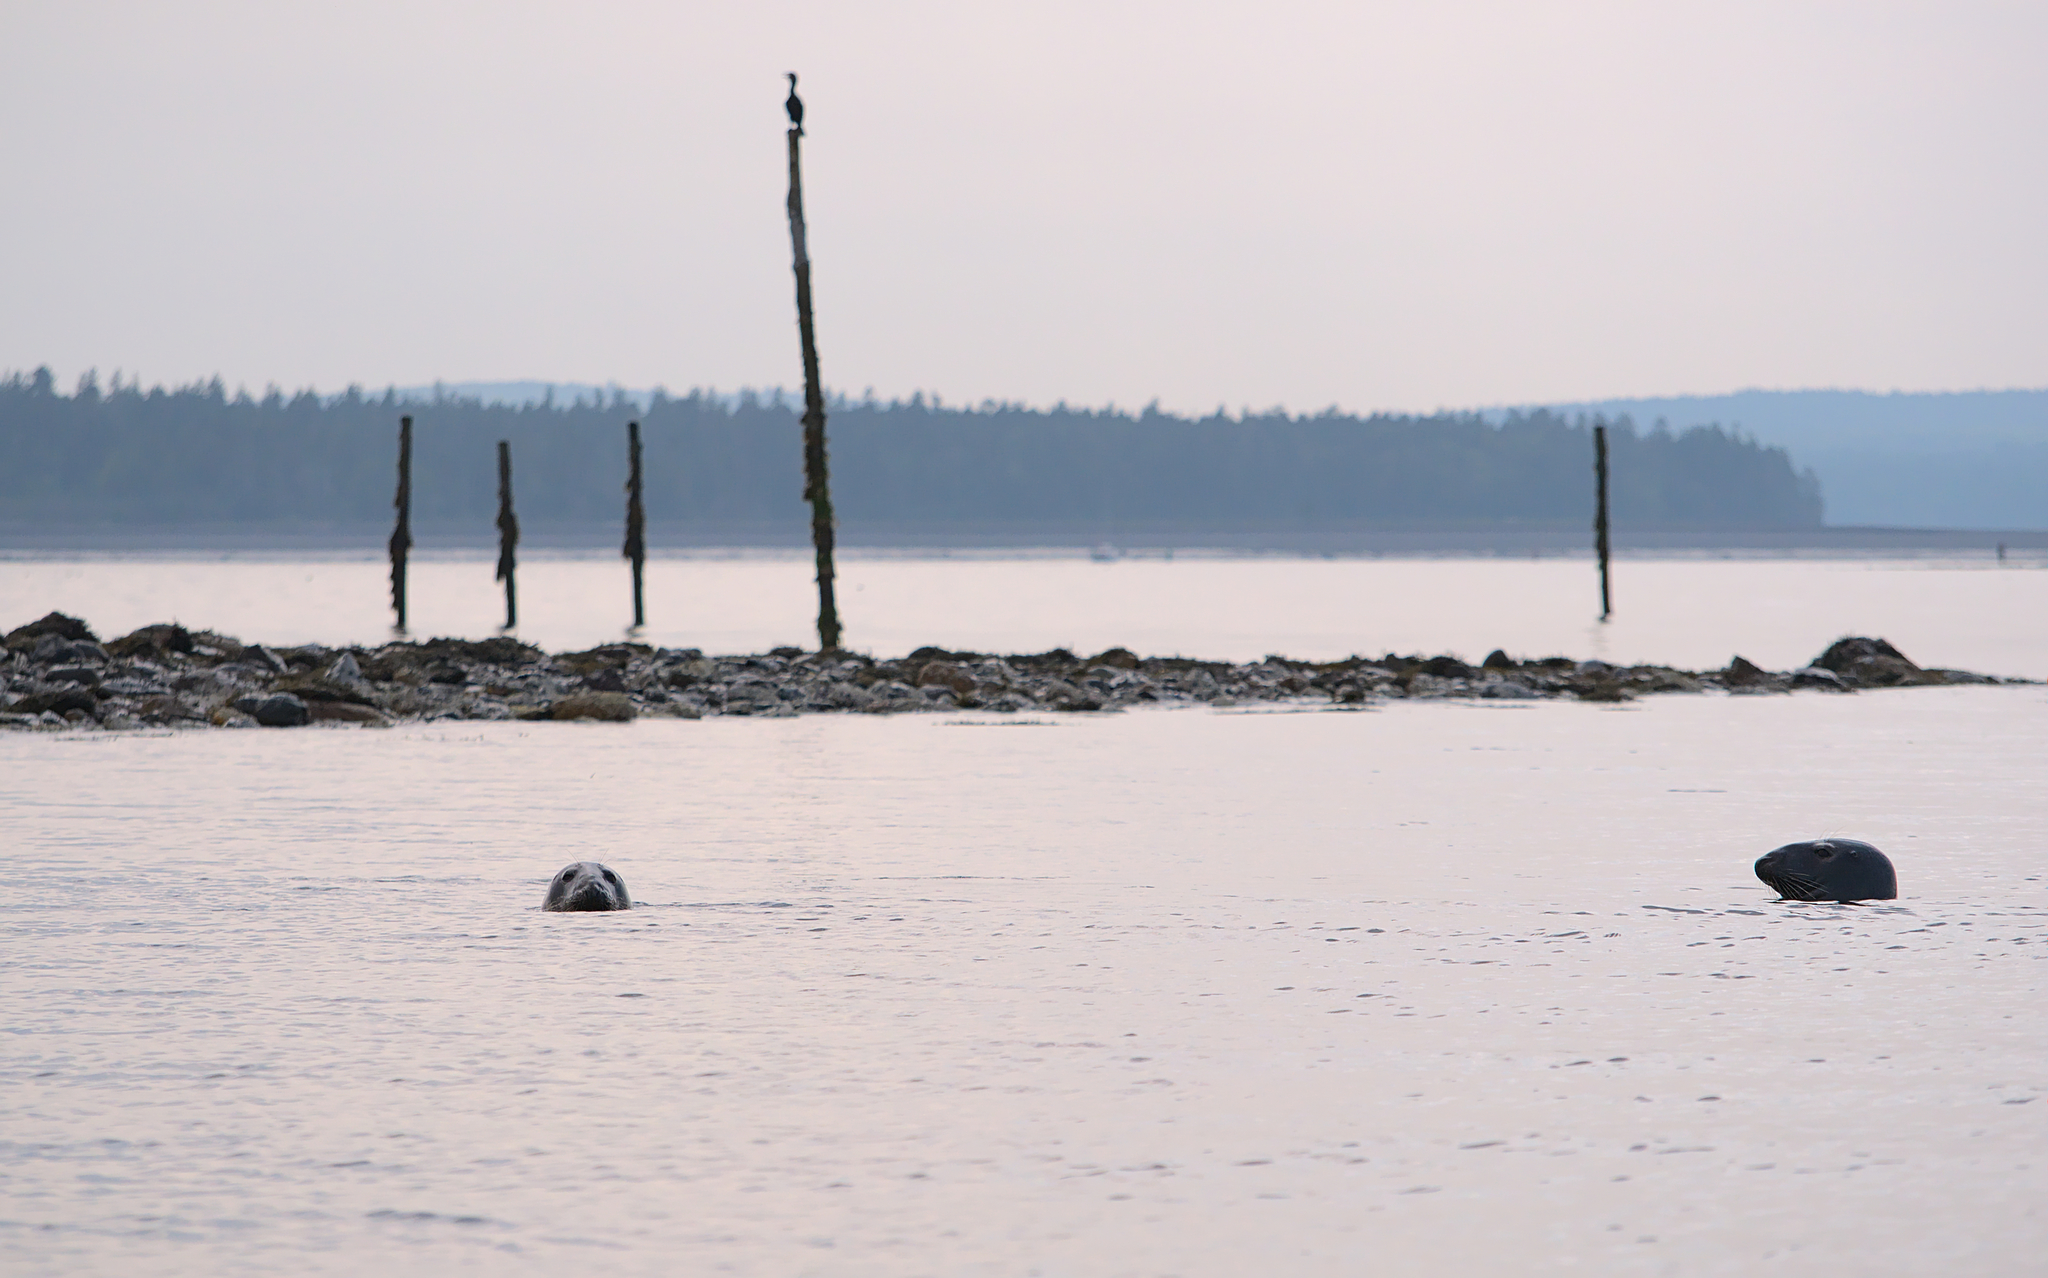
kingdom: Animalia
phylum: Chordata
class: Mammalia
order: Carnivora
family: Phocidae
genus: Halichoerus
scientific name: Halichoerus grypus
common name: Grey seal
